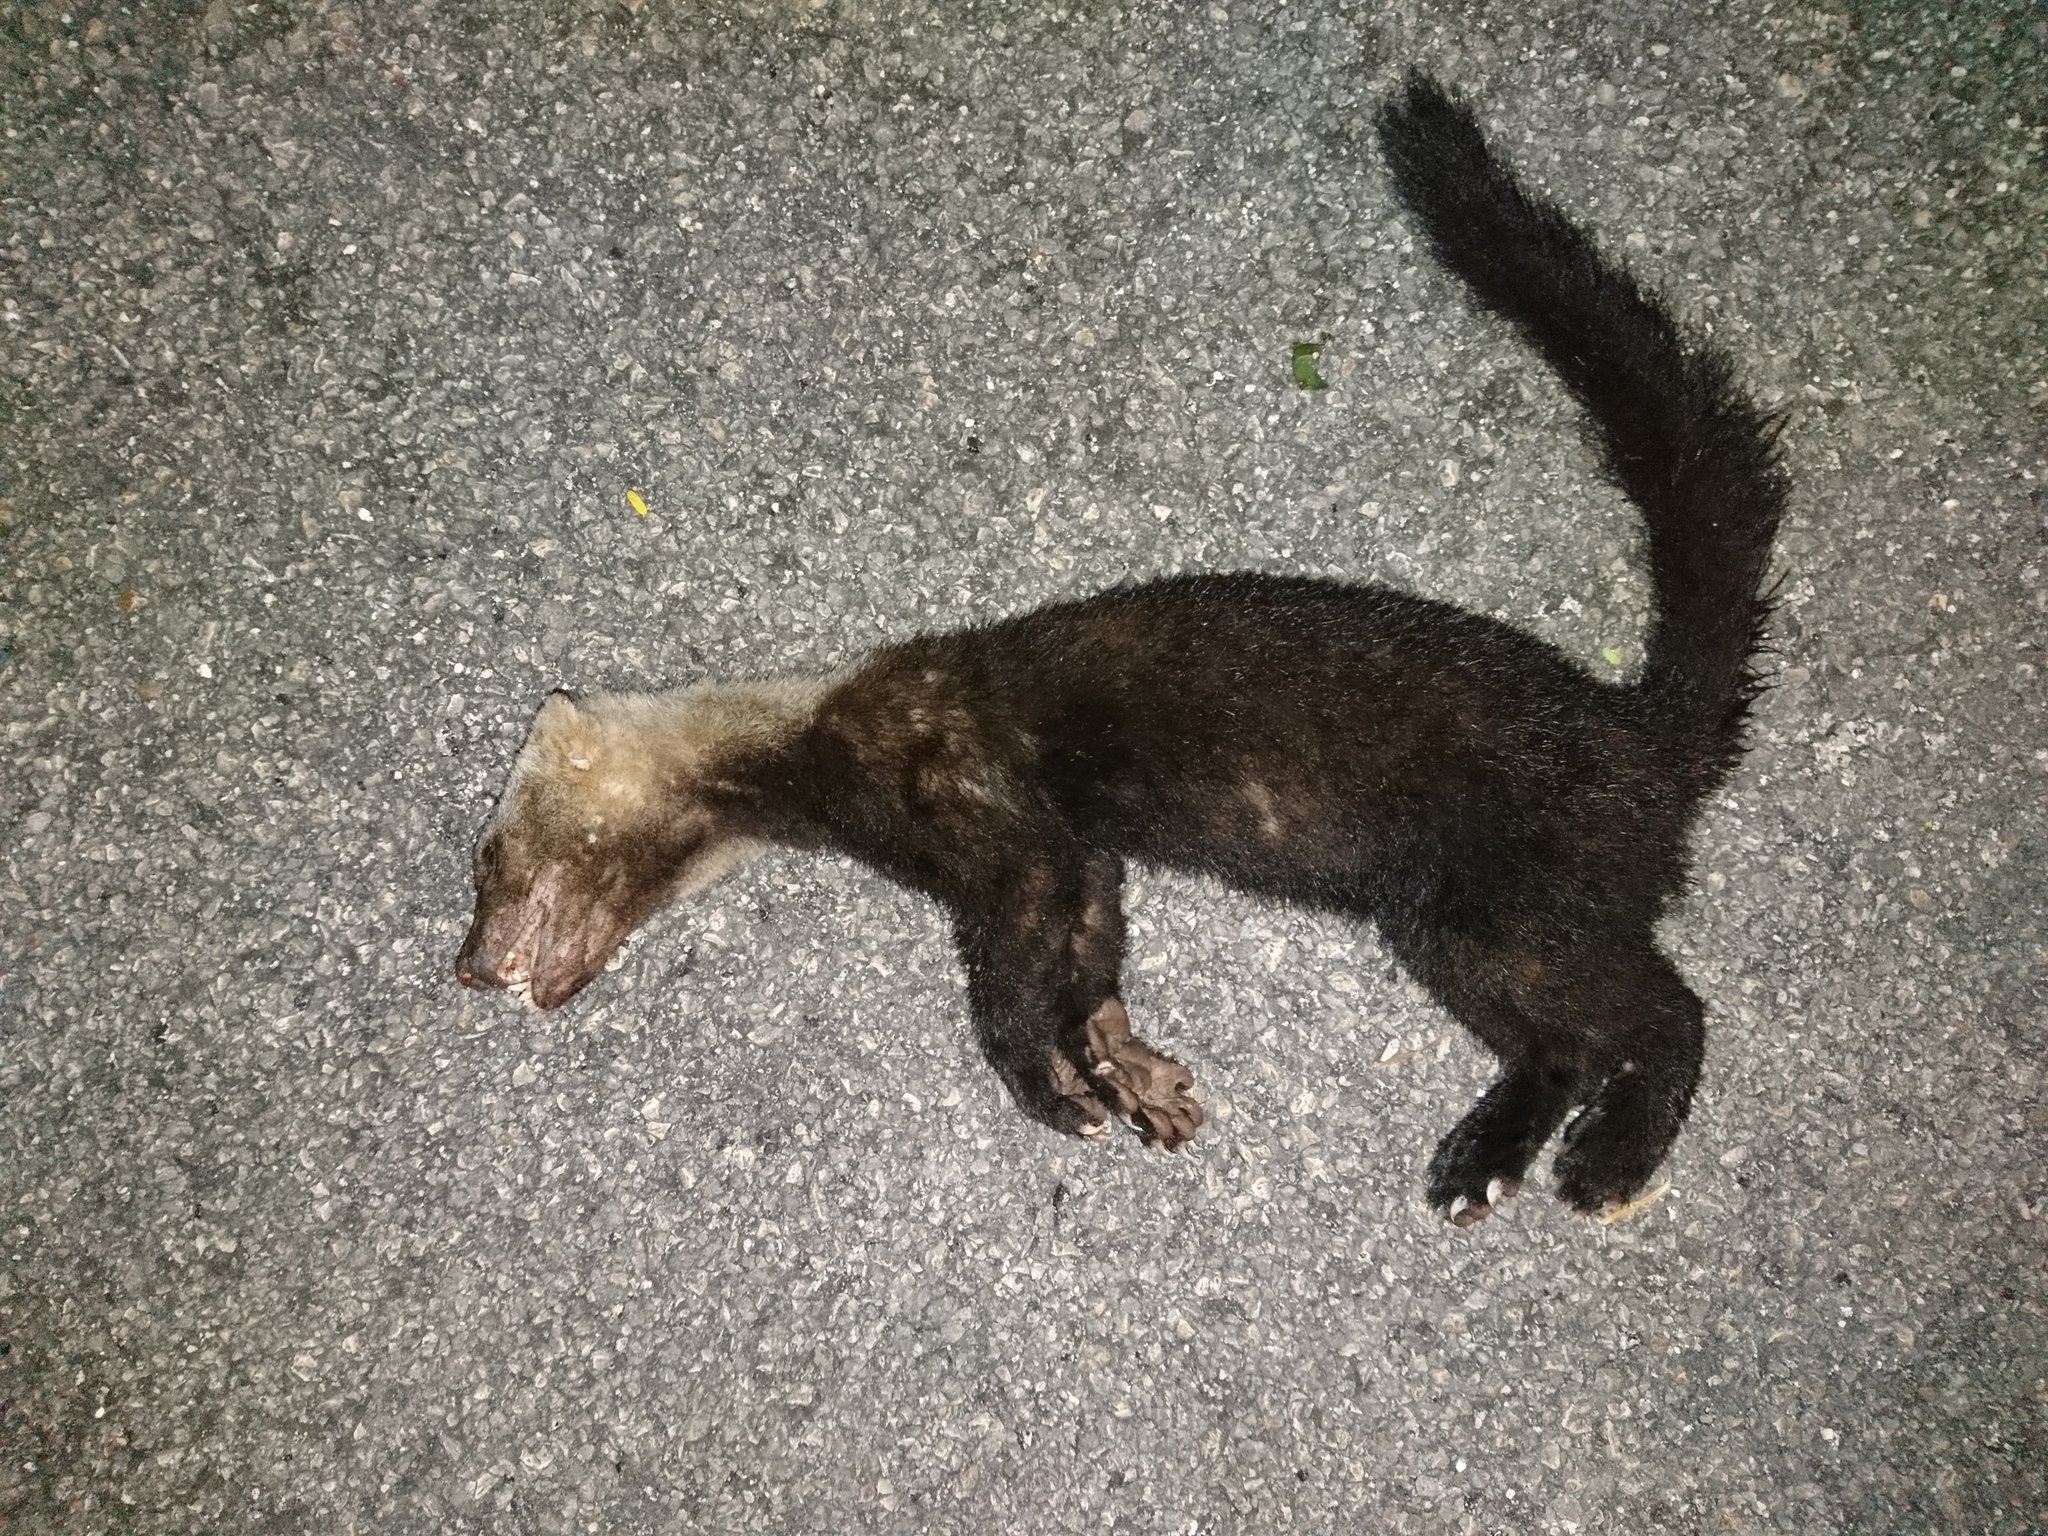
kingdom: Animalia
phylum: Chordata
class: Mammalia
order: Carnivora
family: Mustelidae
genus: Eira
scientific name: Eira barbara
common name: Tayra
